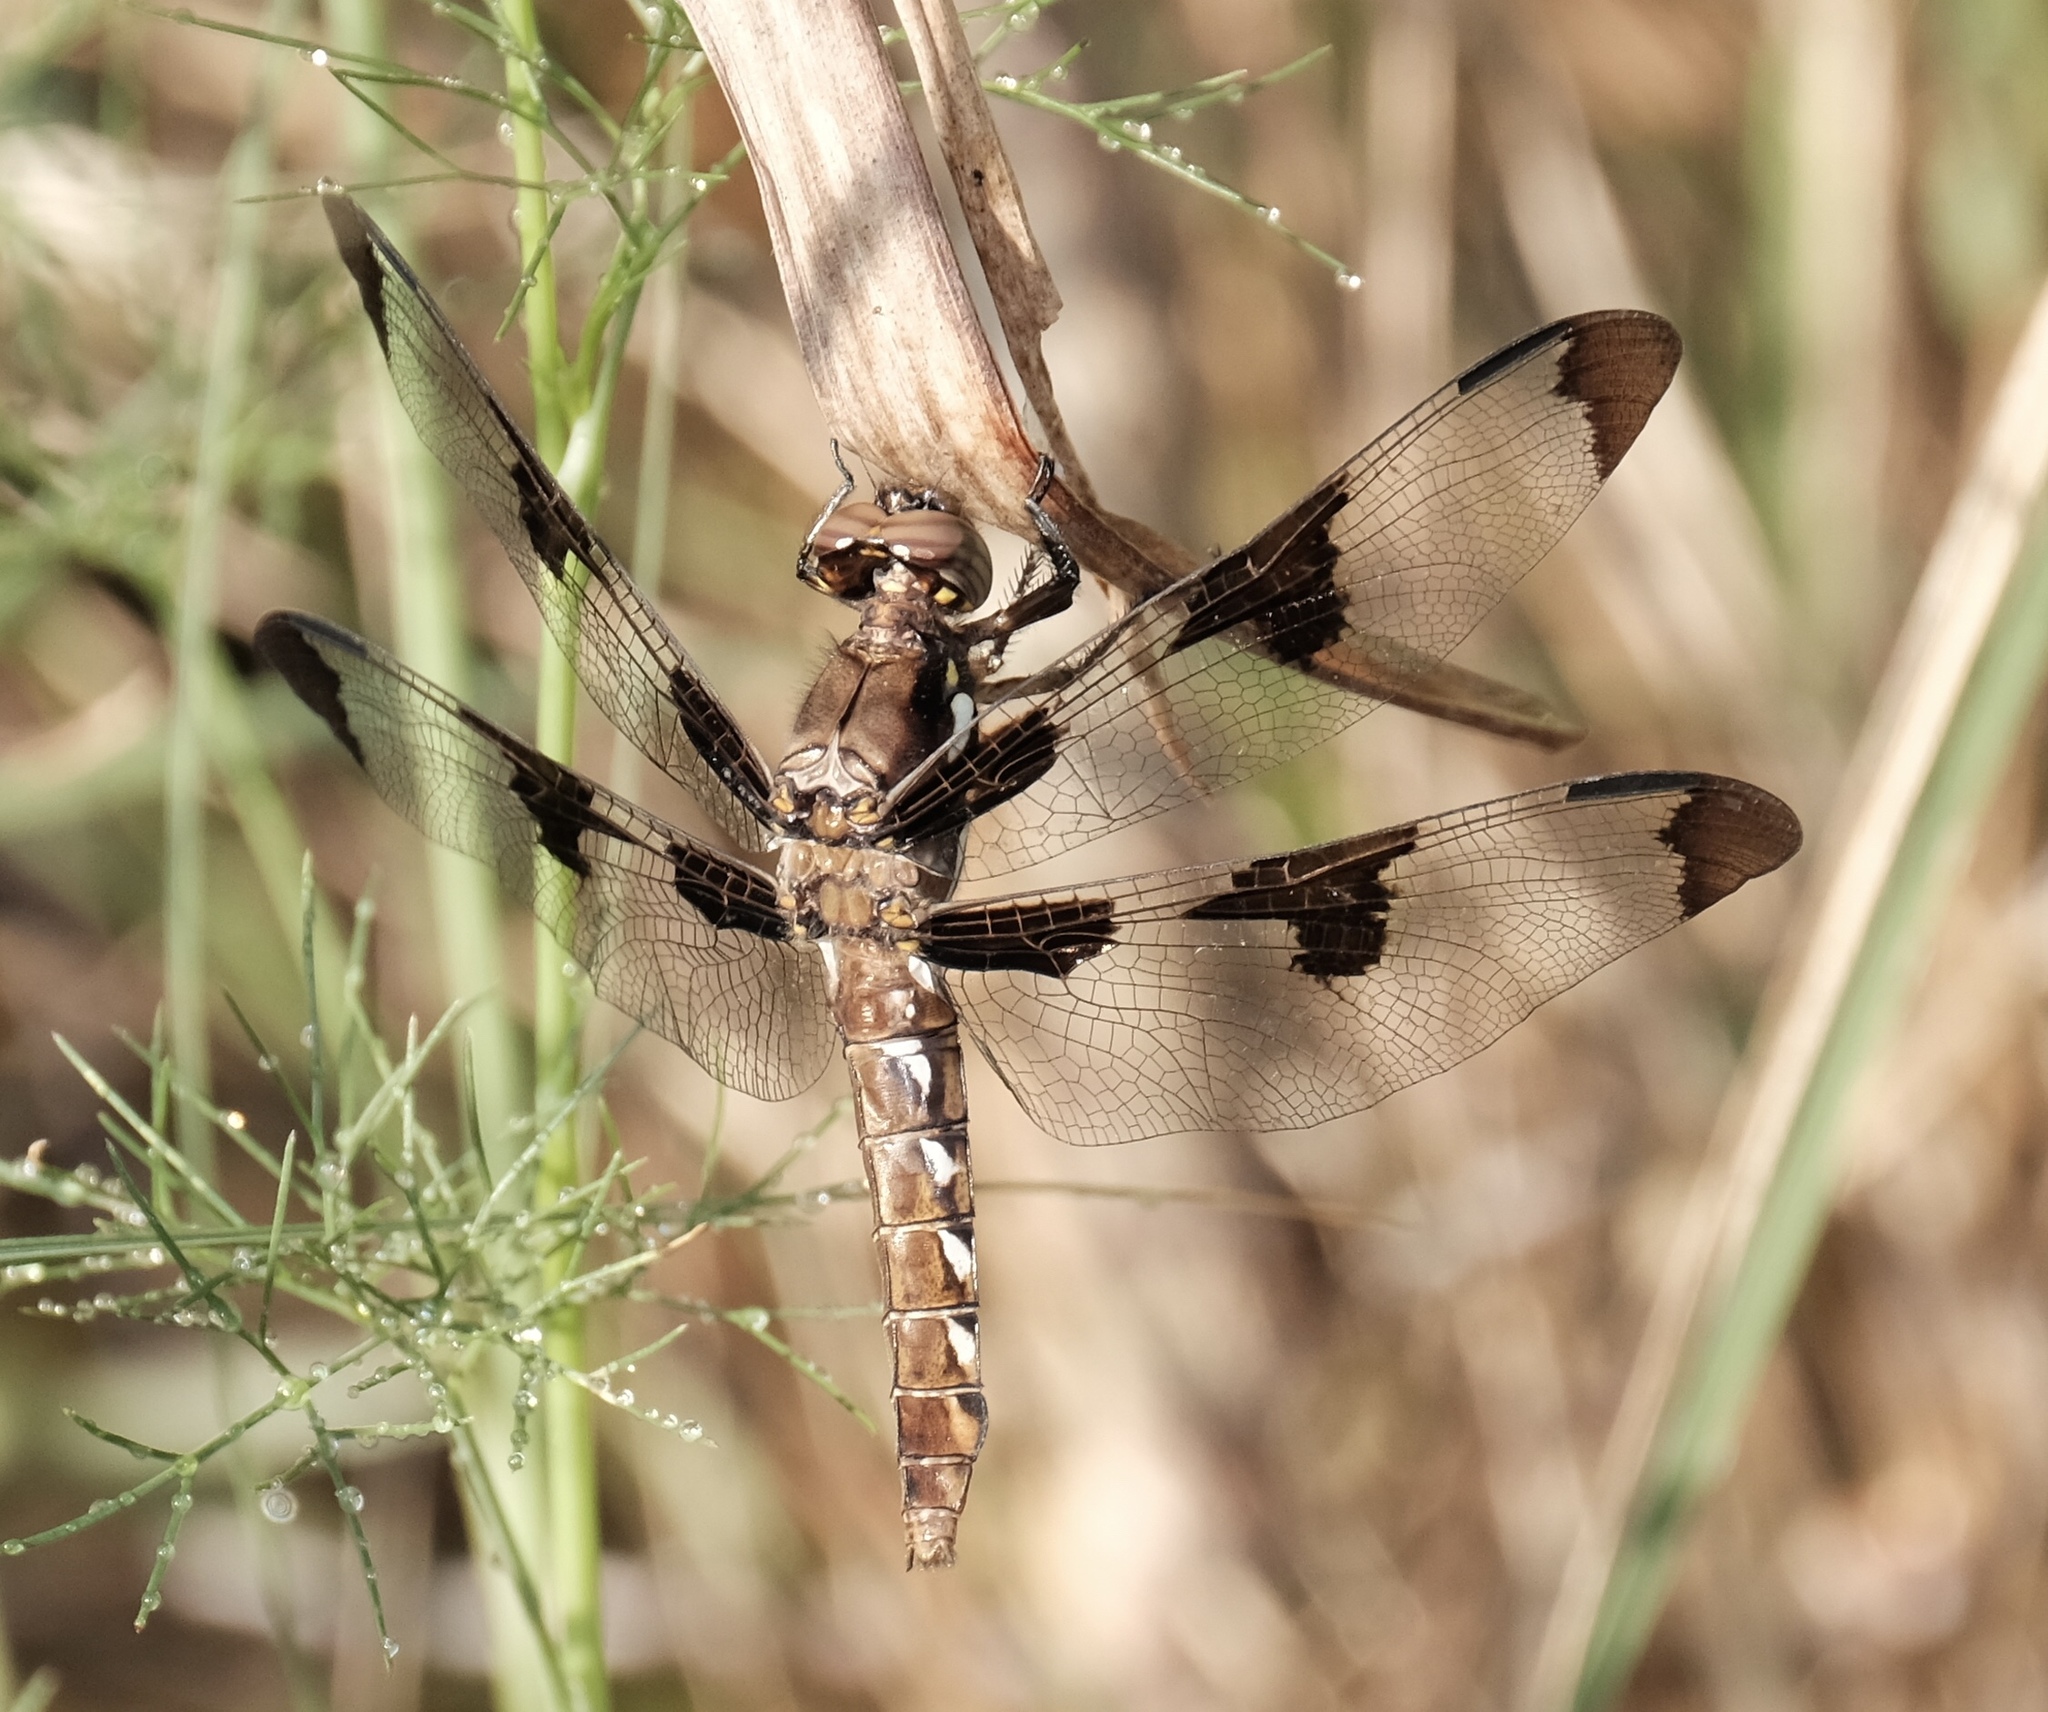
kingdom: Animalia
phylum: Arthropoda
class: Insecta
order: Odonata
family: Libellulidae
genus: Plathemis
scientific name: Plathemis lydia
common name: Common whitetail
